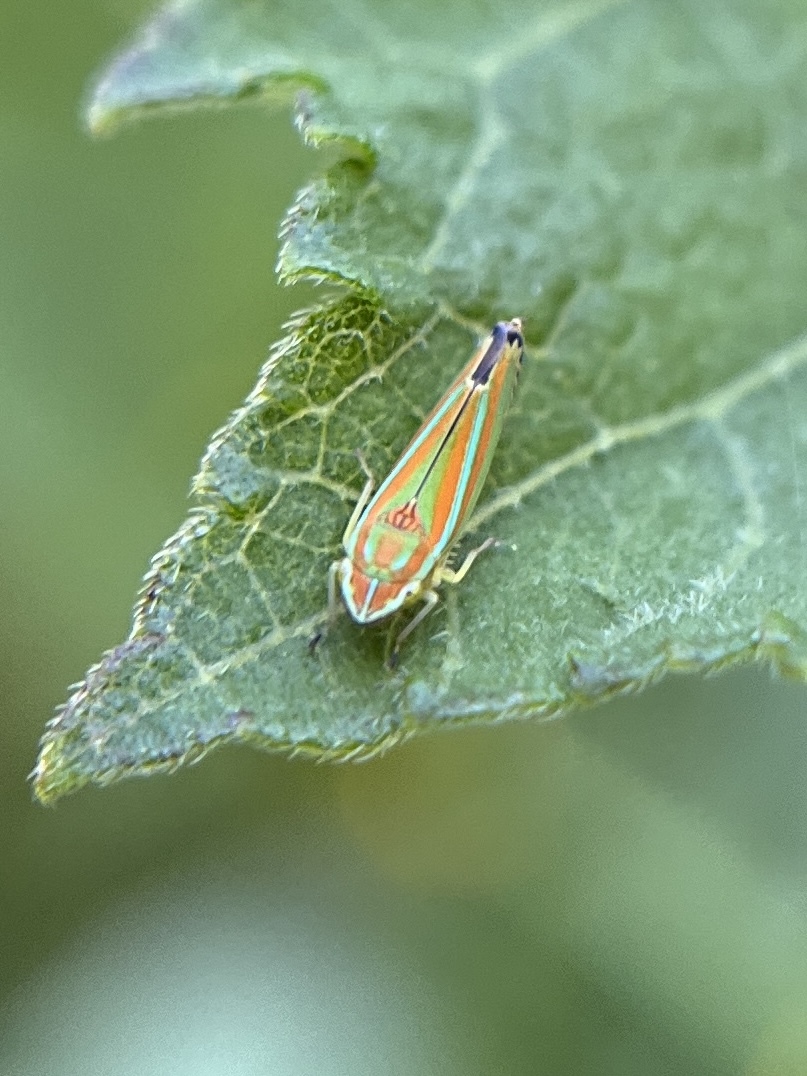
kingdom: Animalia
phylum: Arthropoda
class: Insecta
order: Hemiptera
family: Cicadellidae
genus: Graphocephala
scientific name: Graphocephala versuta
